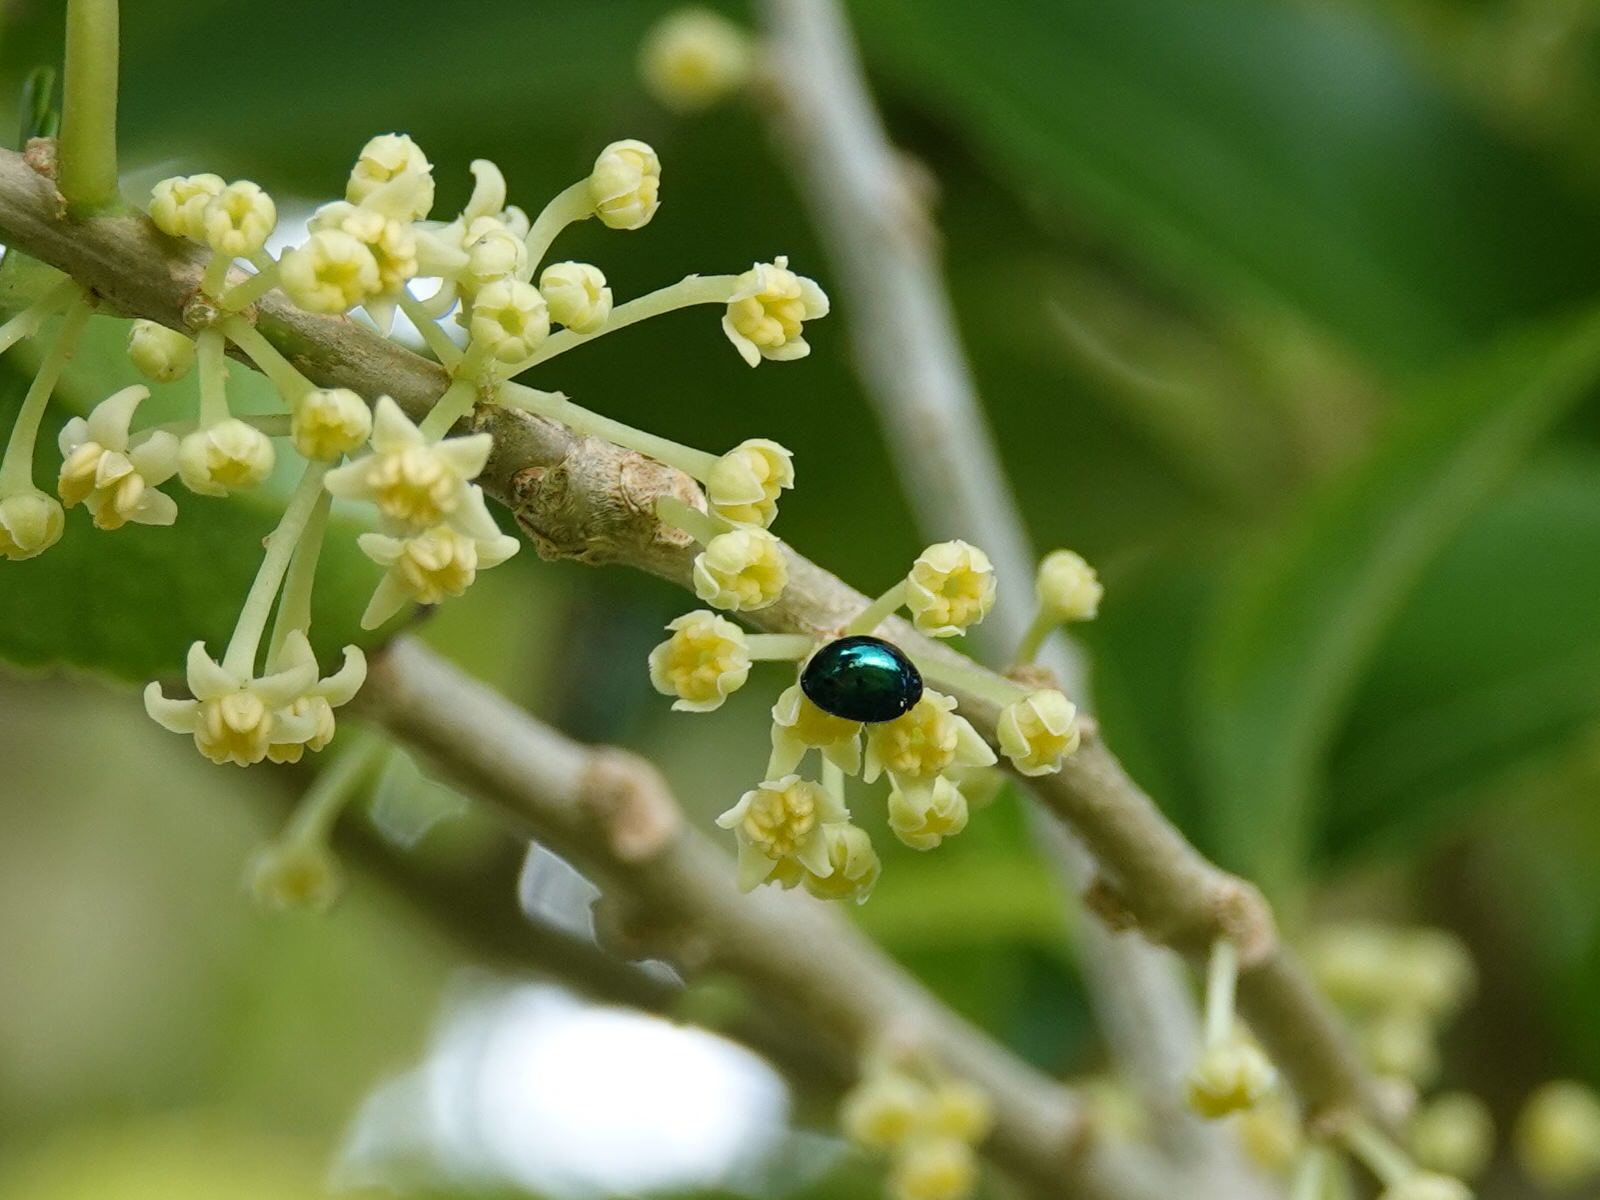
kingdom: Animalia
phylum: Arthropoda
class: Insecta
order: Coleoptera
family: Coccinellidae
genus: Halmus
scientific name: Halmus chalybeus
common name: Steel blue ladybird beetle
